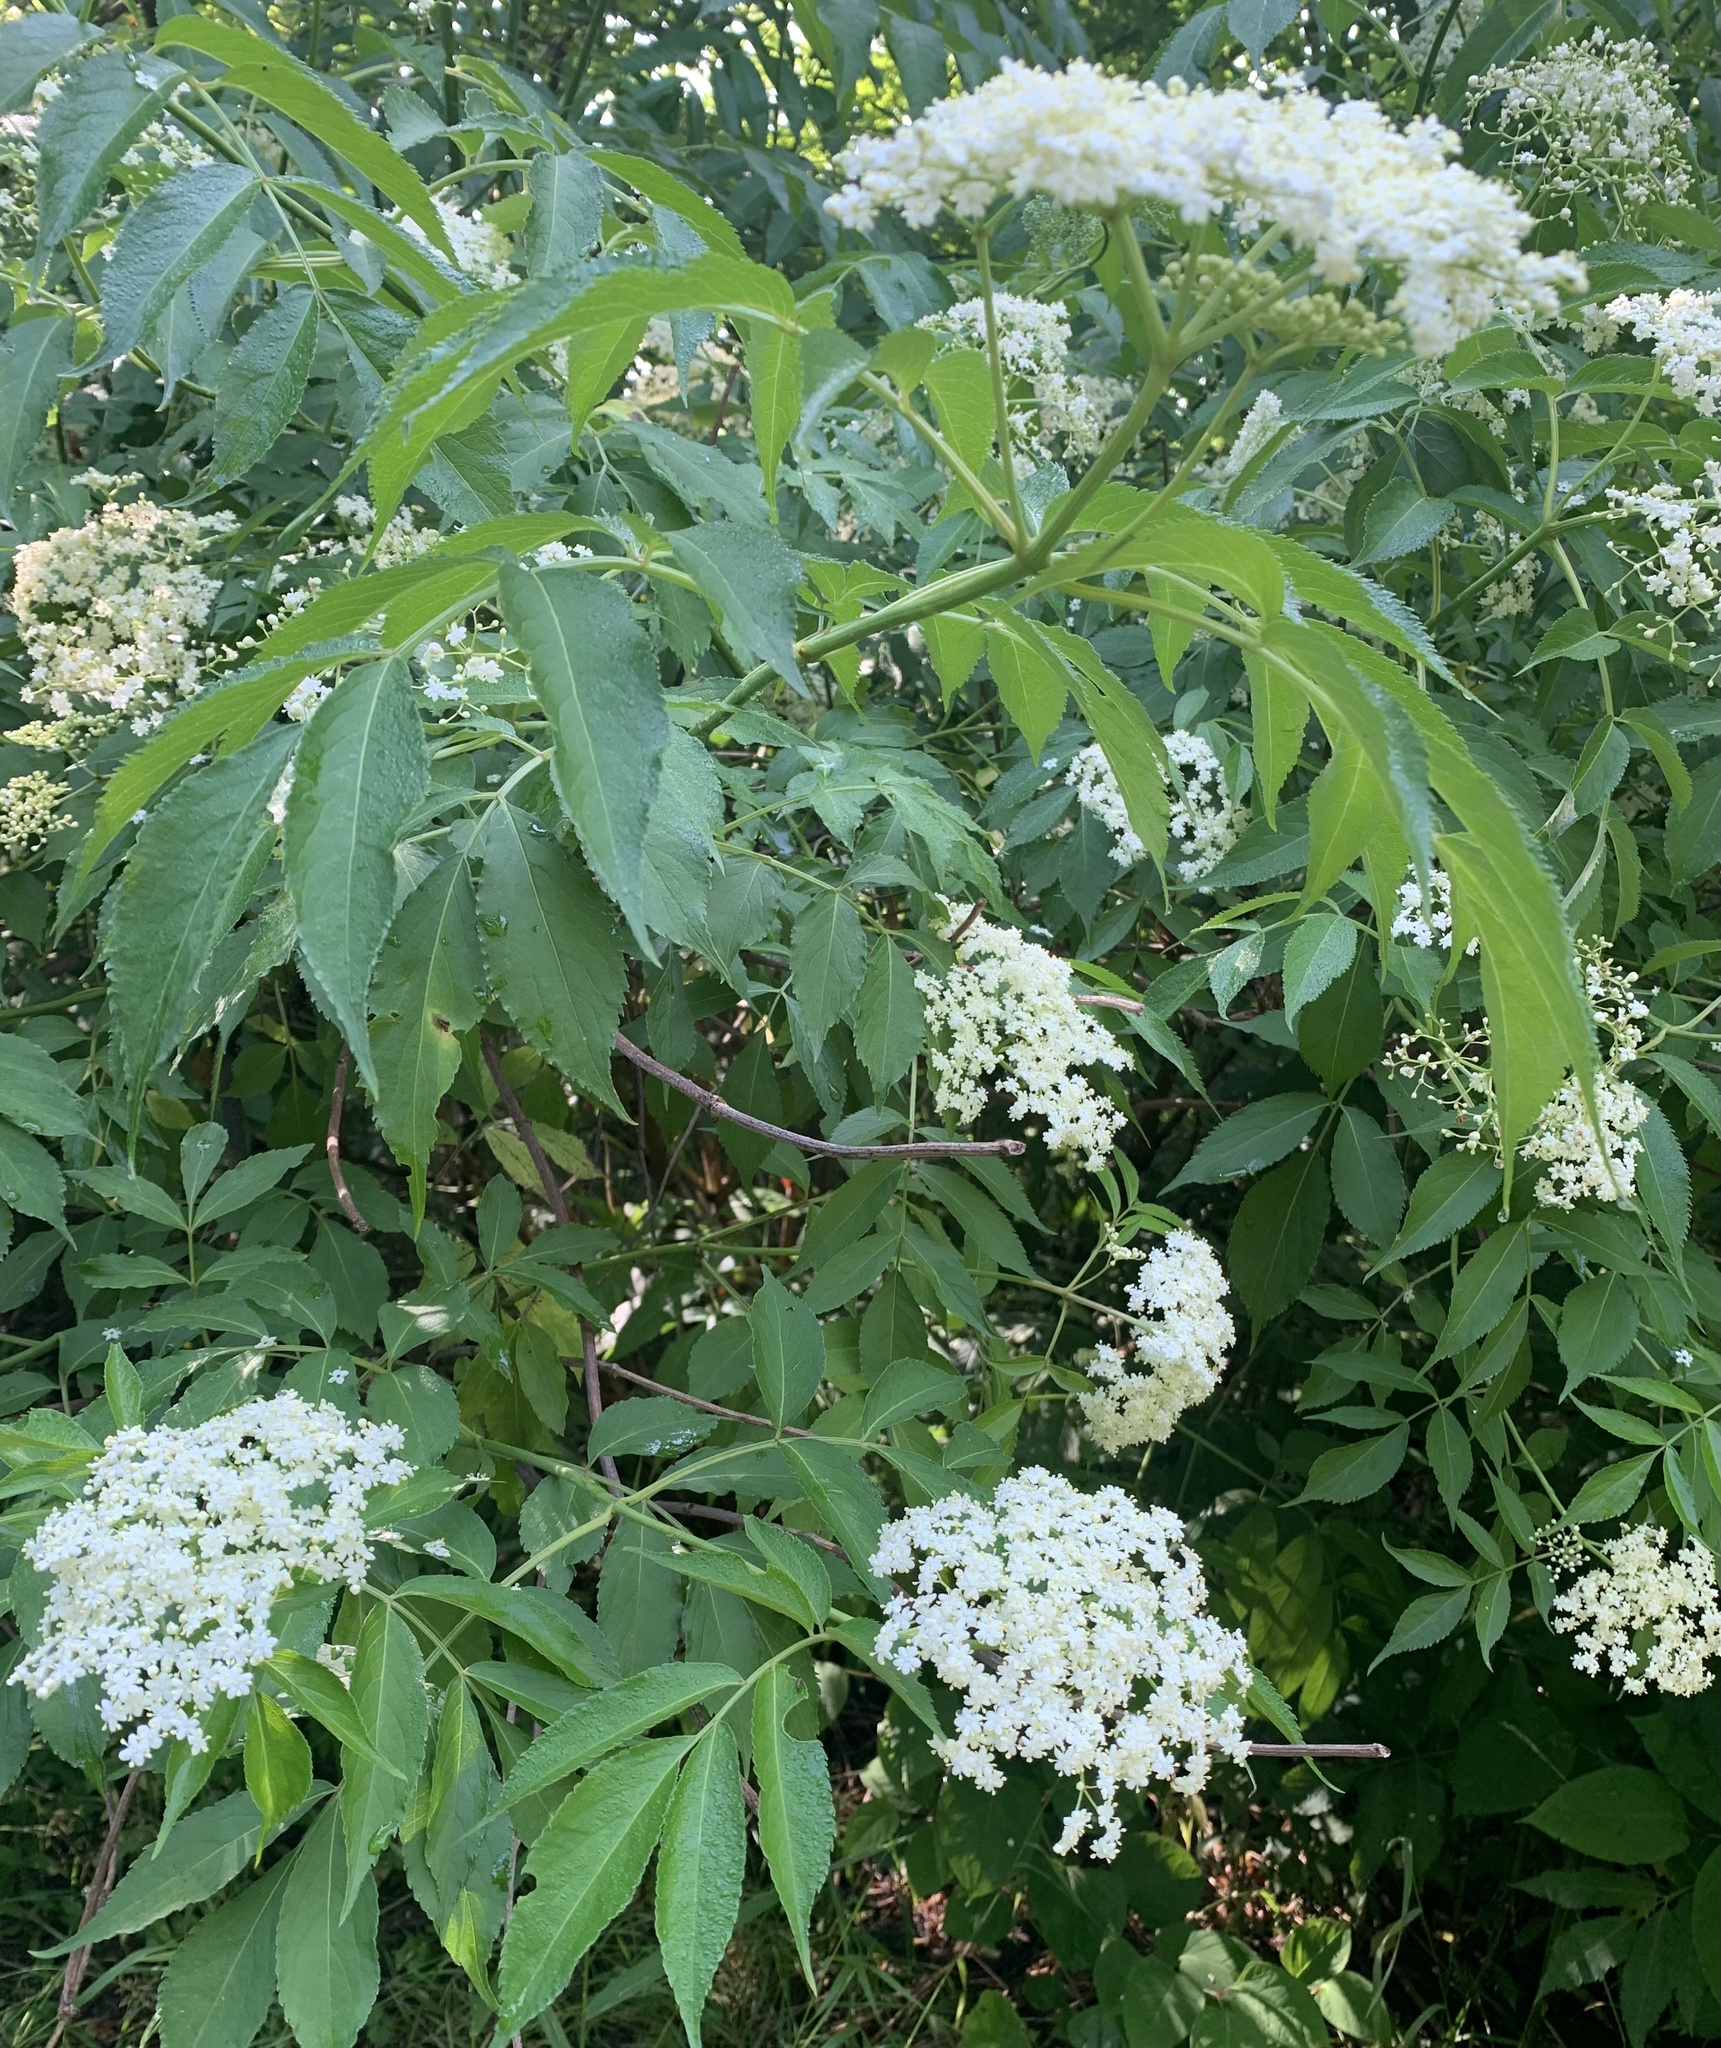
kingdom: Plantae
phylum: Tracheophyta
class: Magnoliopsida
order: Dipsacales
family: Viburnaceae
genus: Sambucus
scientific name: Sambucus canadensis
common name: American elder
